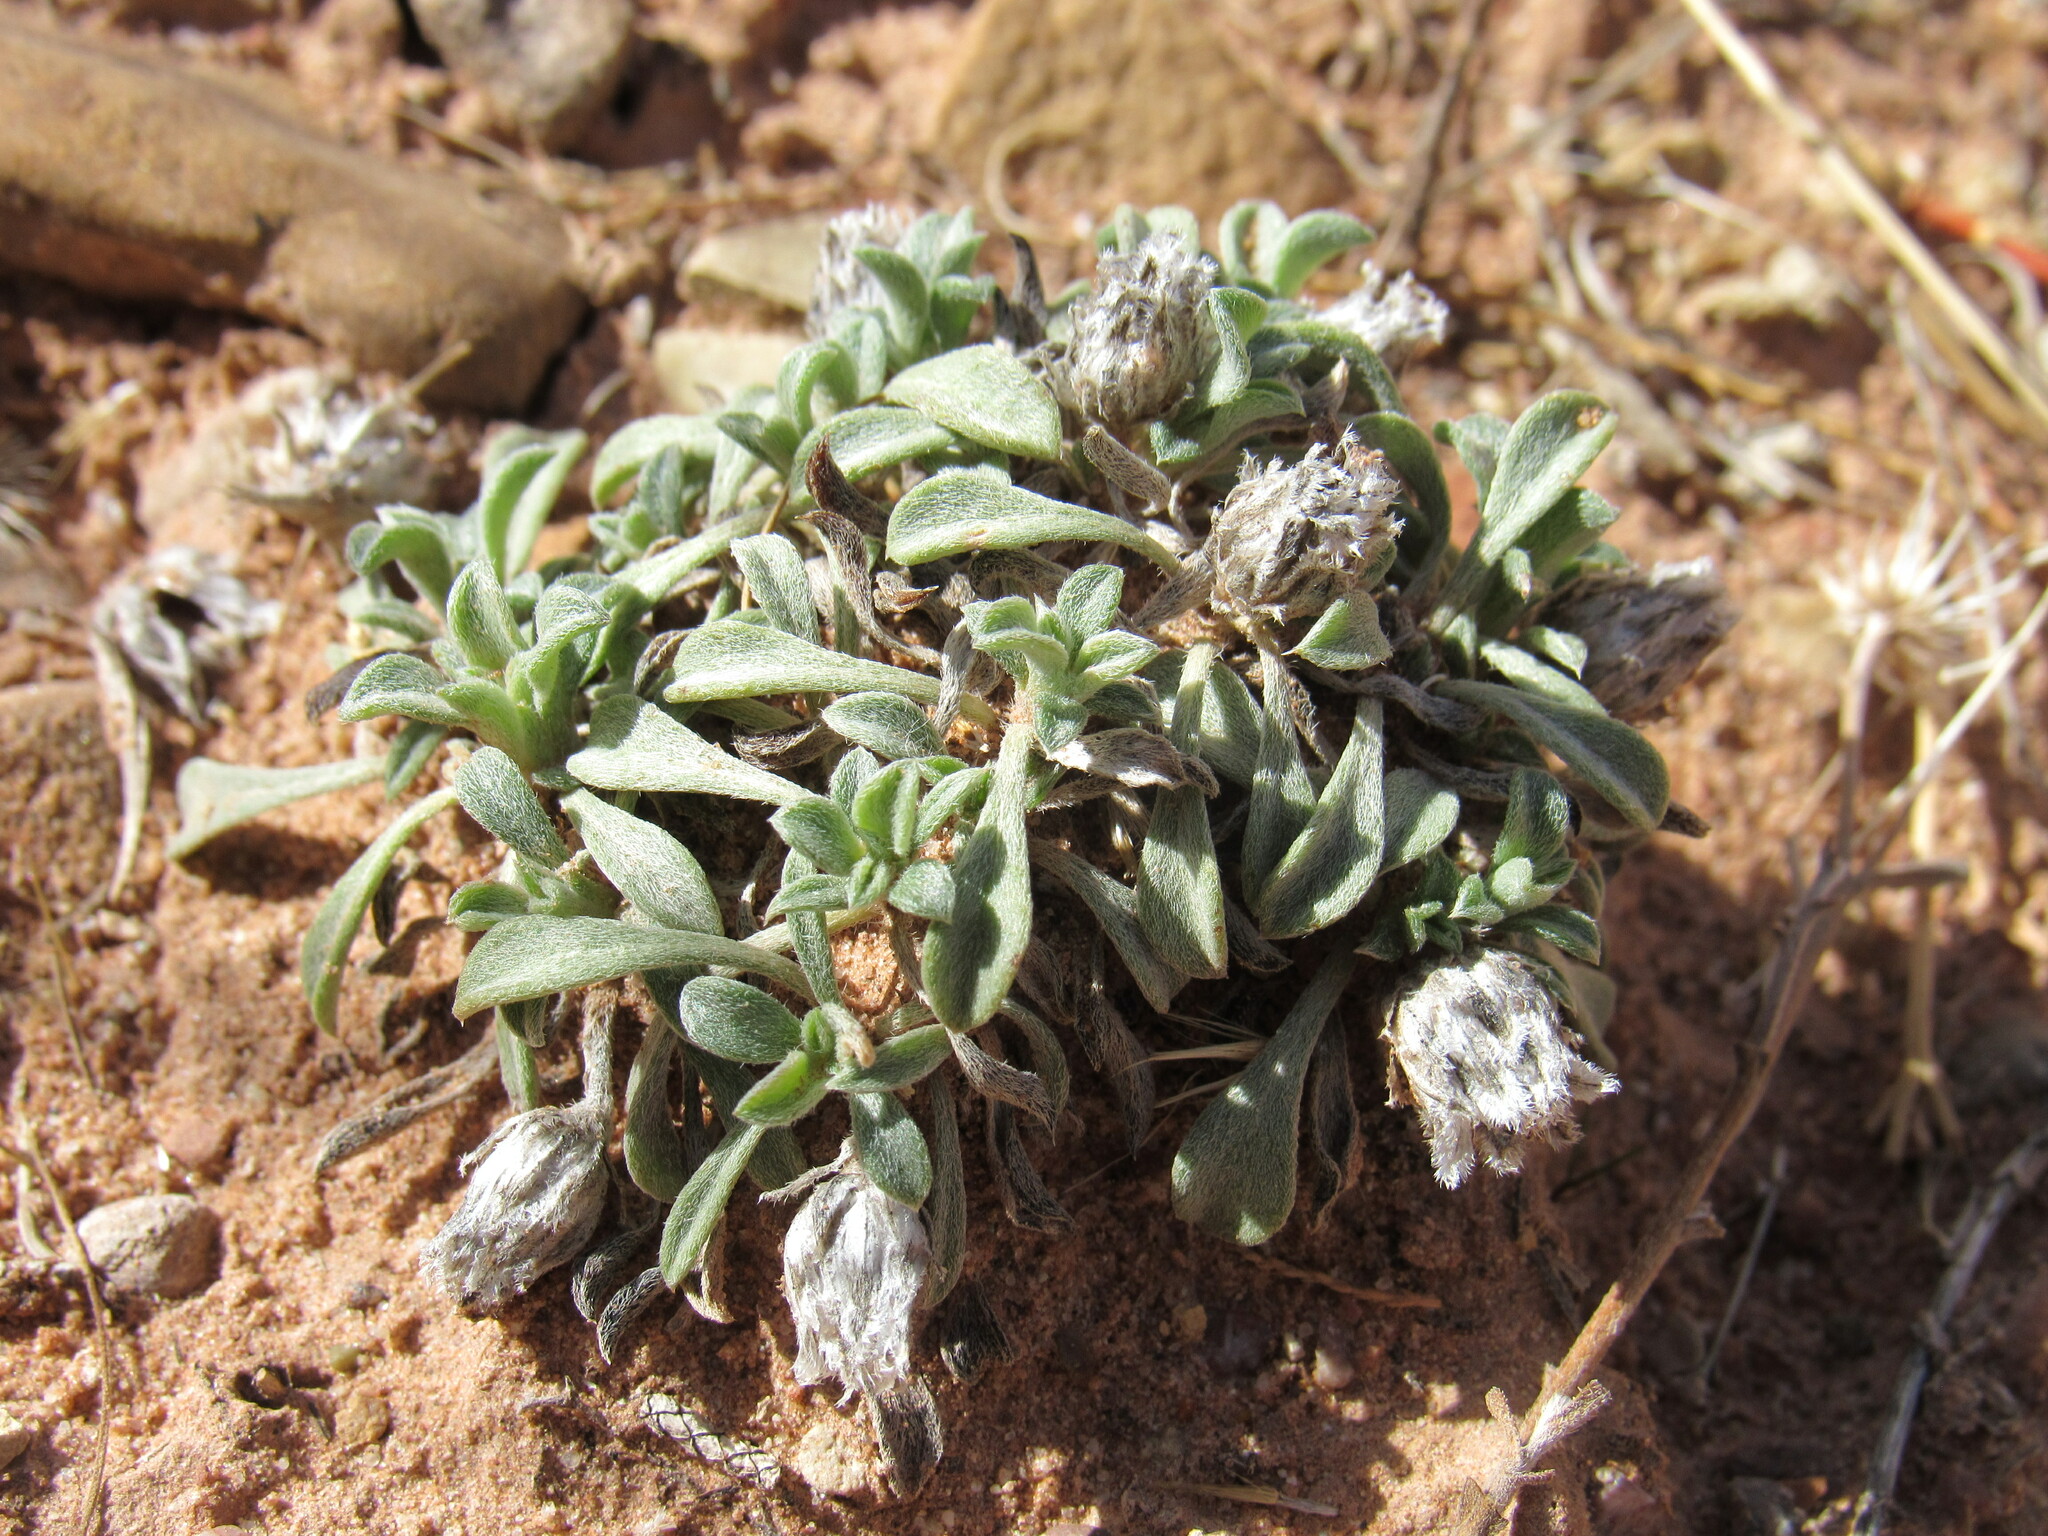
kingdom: Plantae
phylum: Tracheophyta
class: Magnoliopsida
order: Asterales
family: Asteraceae
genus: Townsendia
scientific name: Townsendia incana
